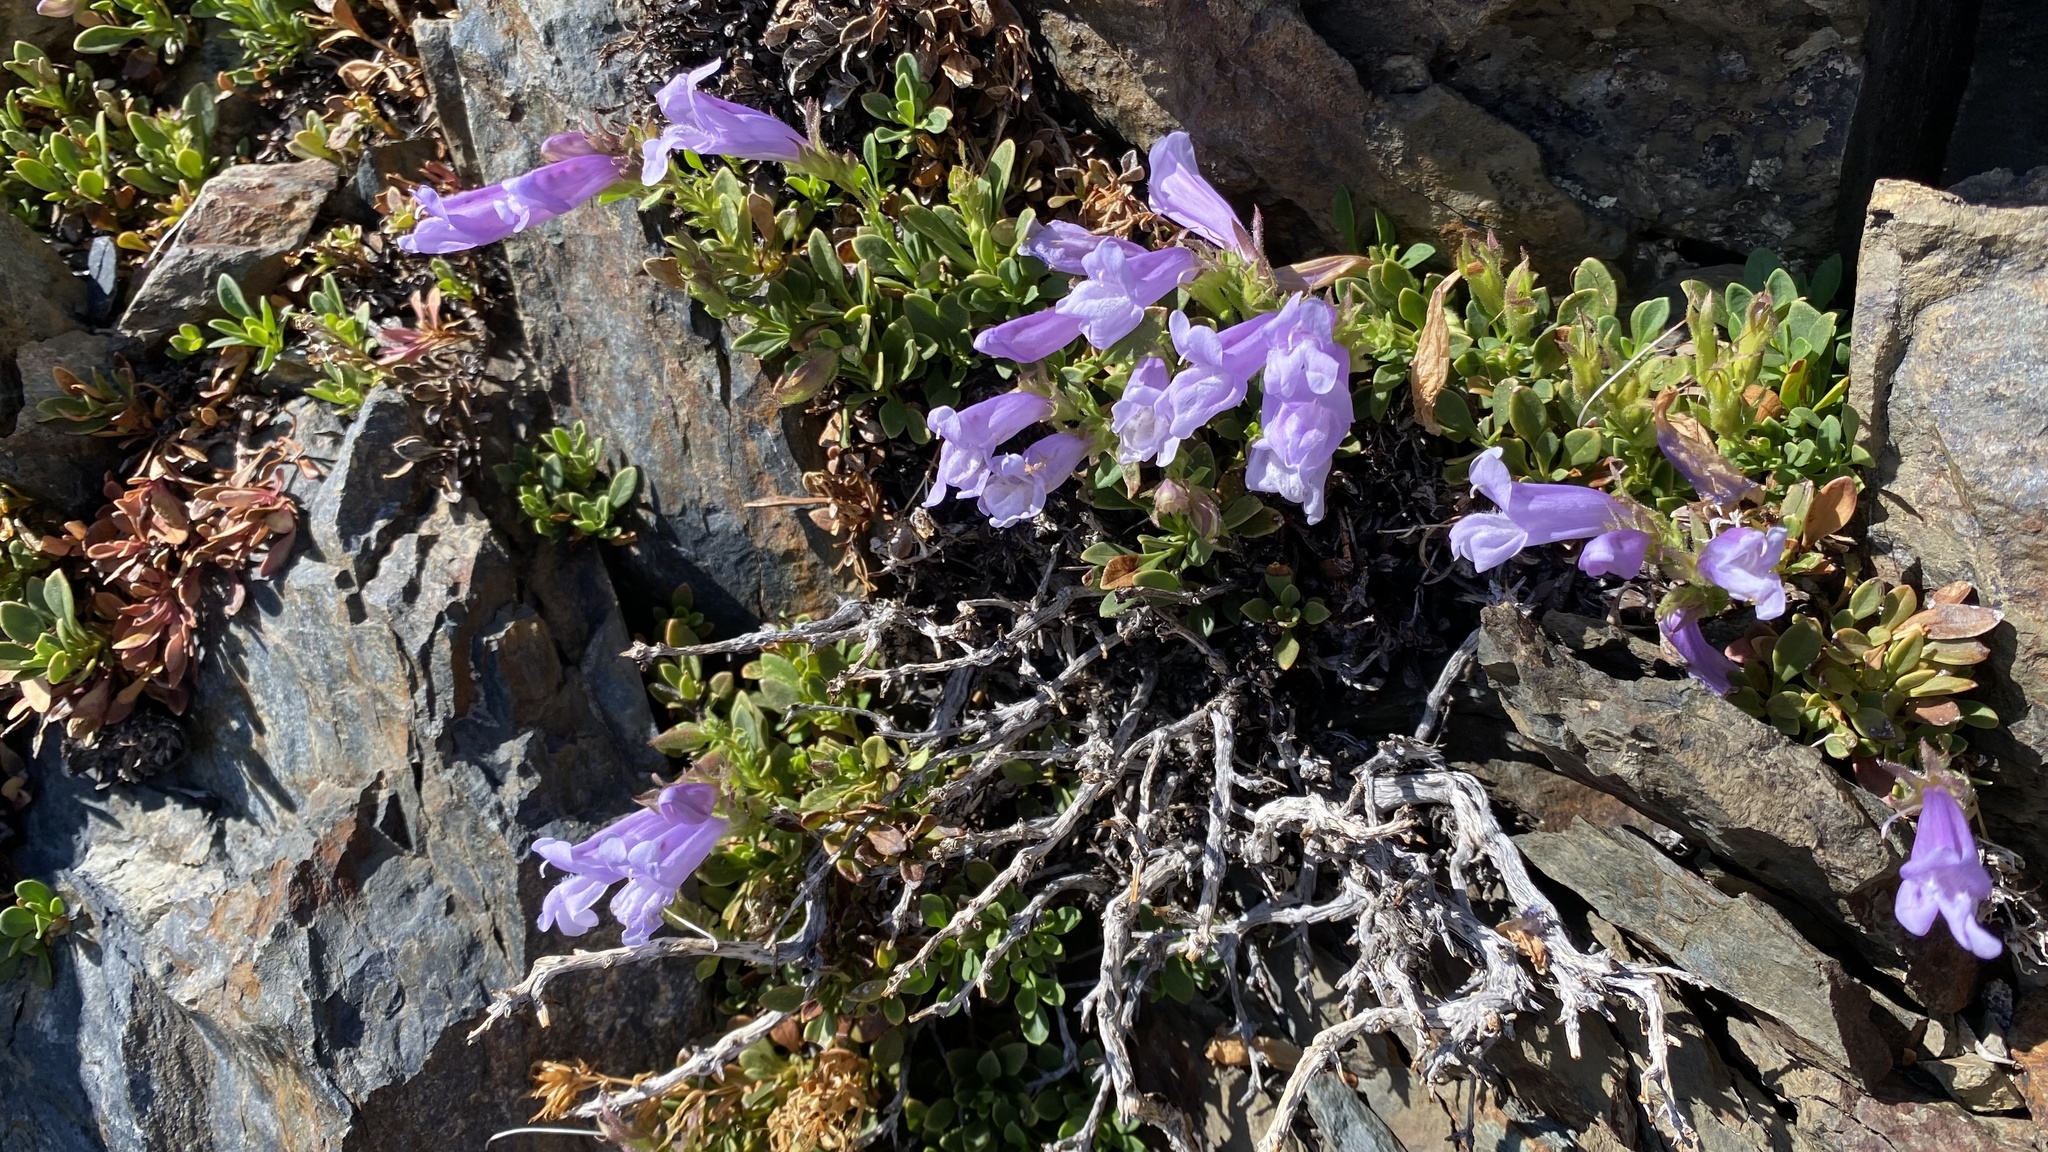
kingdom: Plantae
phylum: Tracheophyta
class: Magnoliopsida
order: Lamiales
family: Plantaginaceae
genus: Penstemon
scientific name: Penstemon davidsonii
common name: Davidson's penstemon
